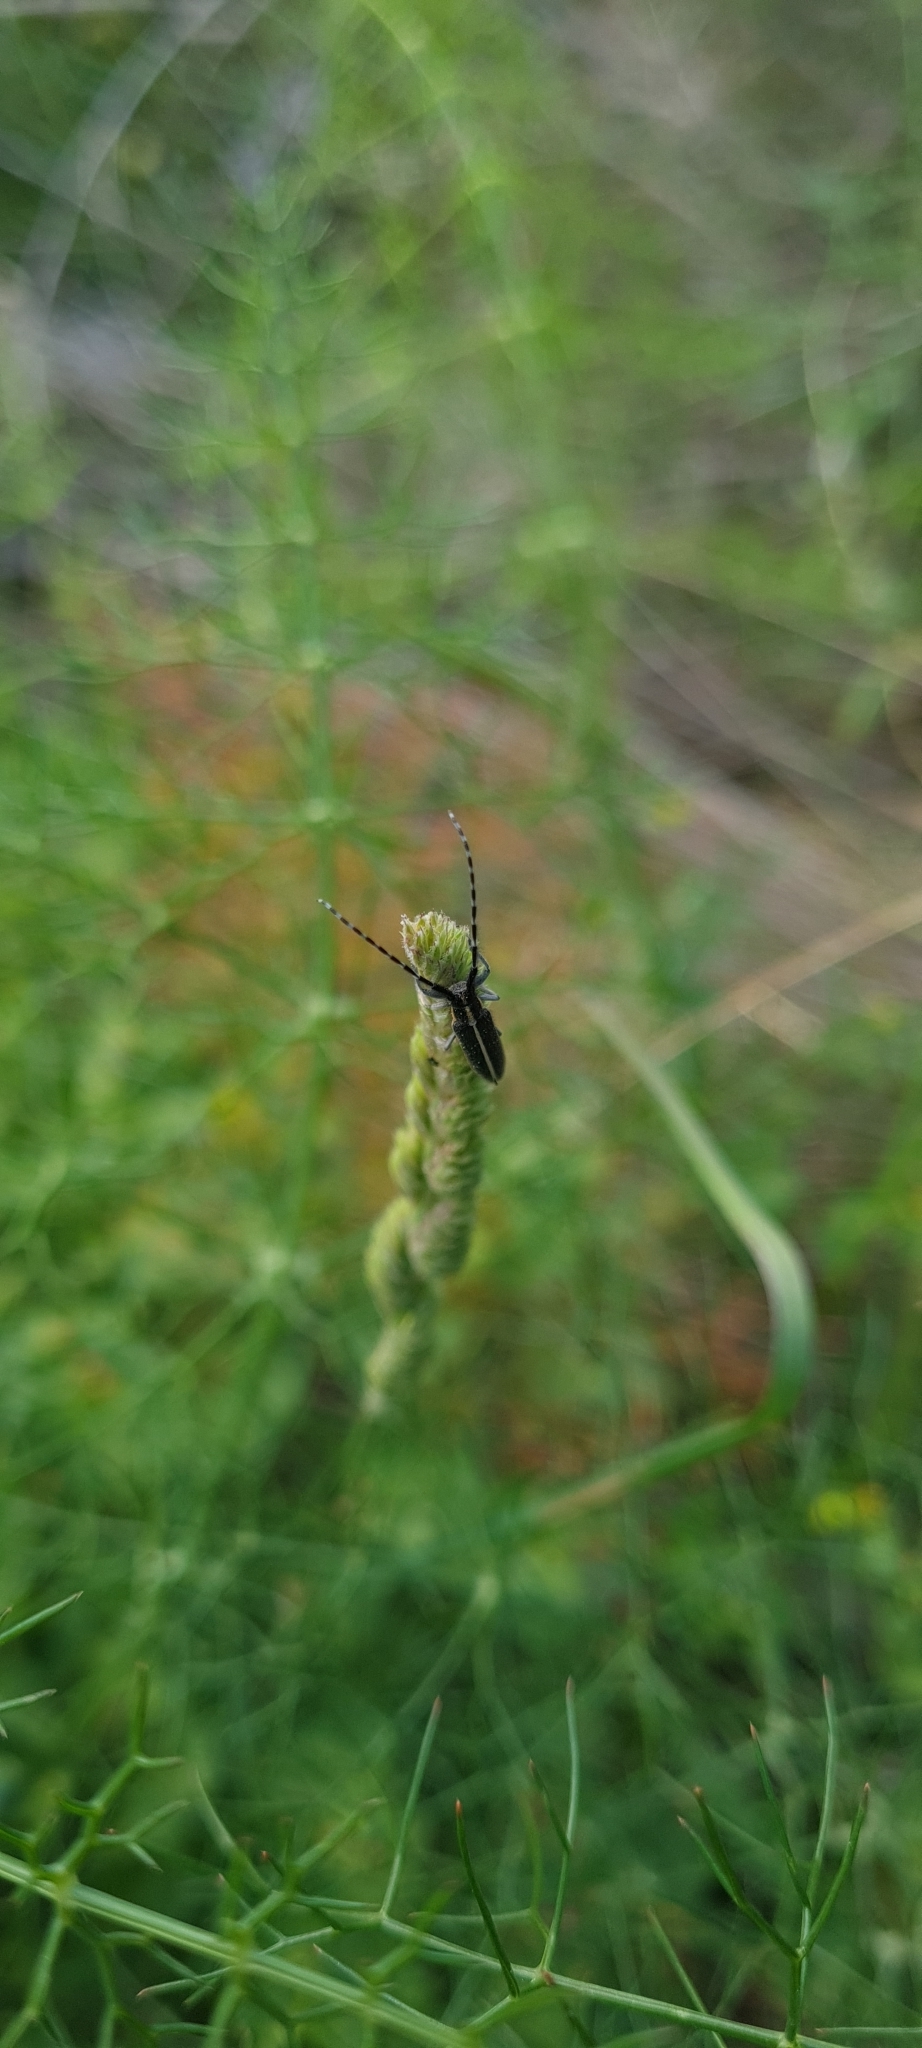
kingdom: Animalia
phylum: Arthropoda
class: Insecta
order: Coleoptera
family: Cerambycidae
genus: Agapanthia
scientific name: Agapanthia cardui
